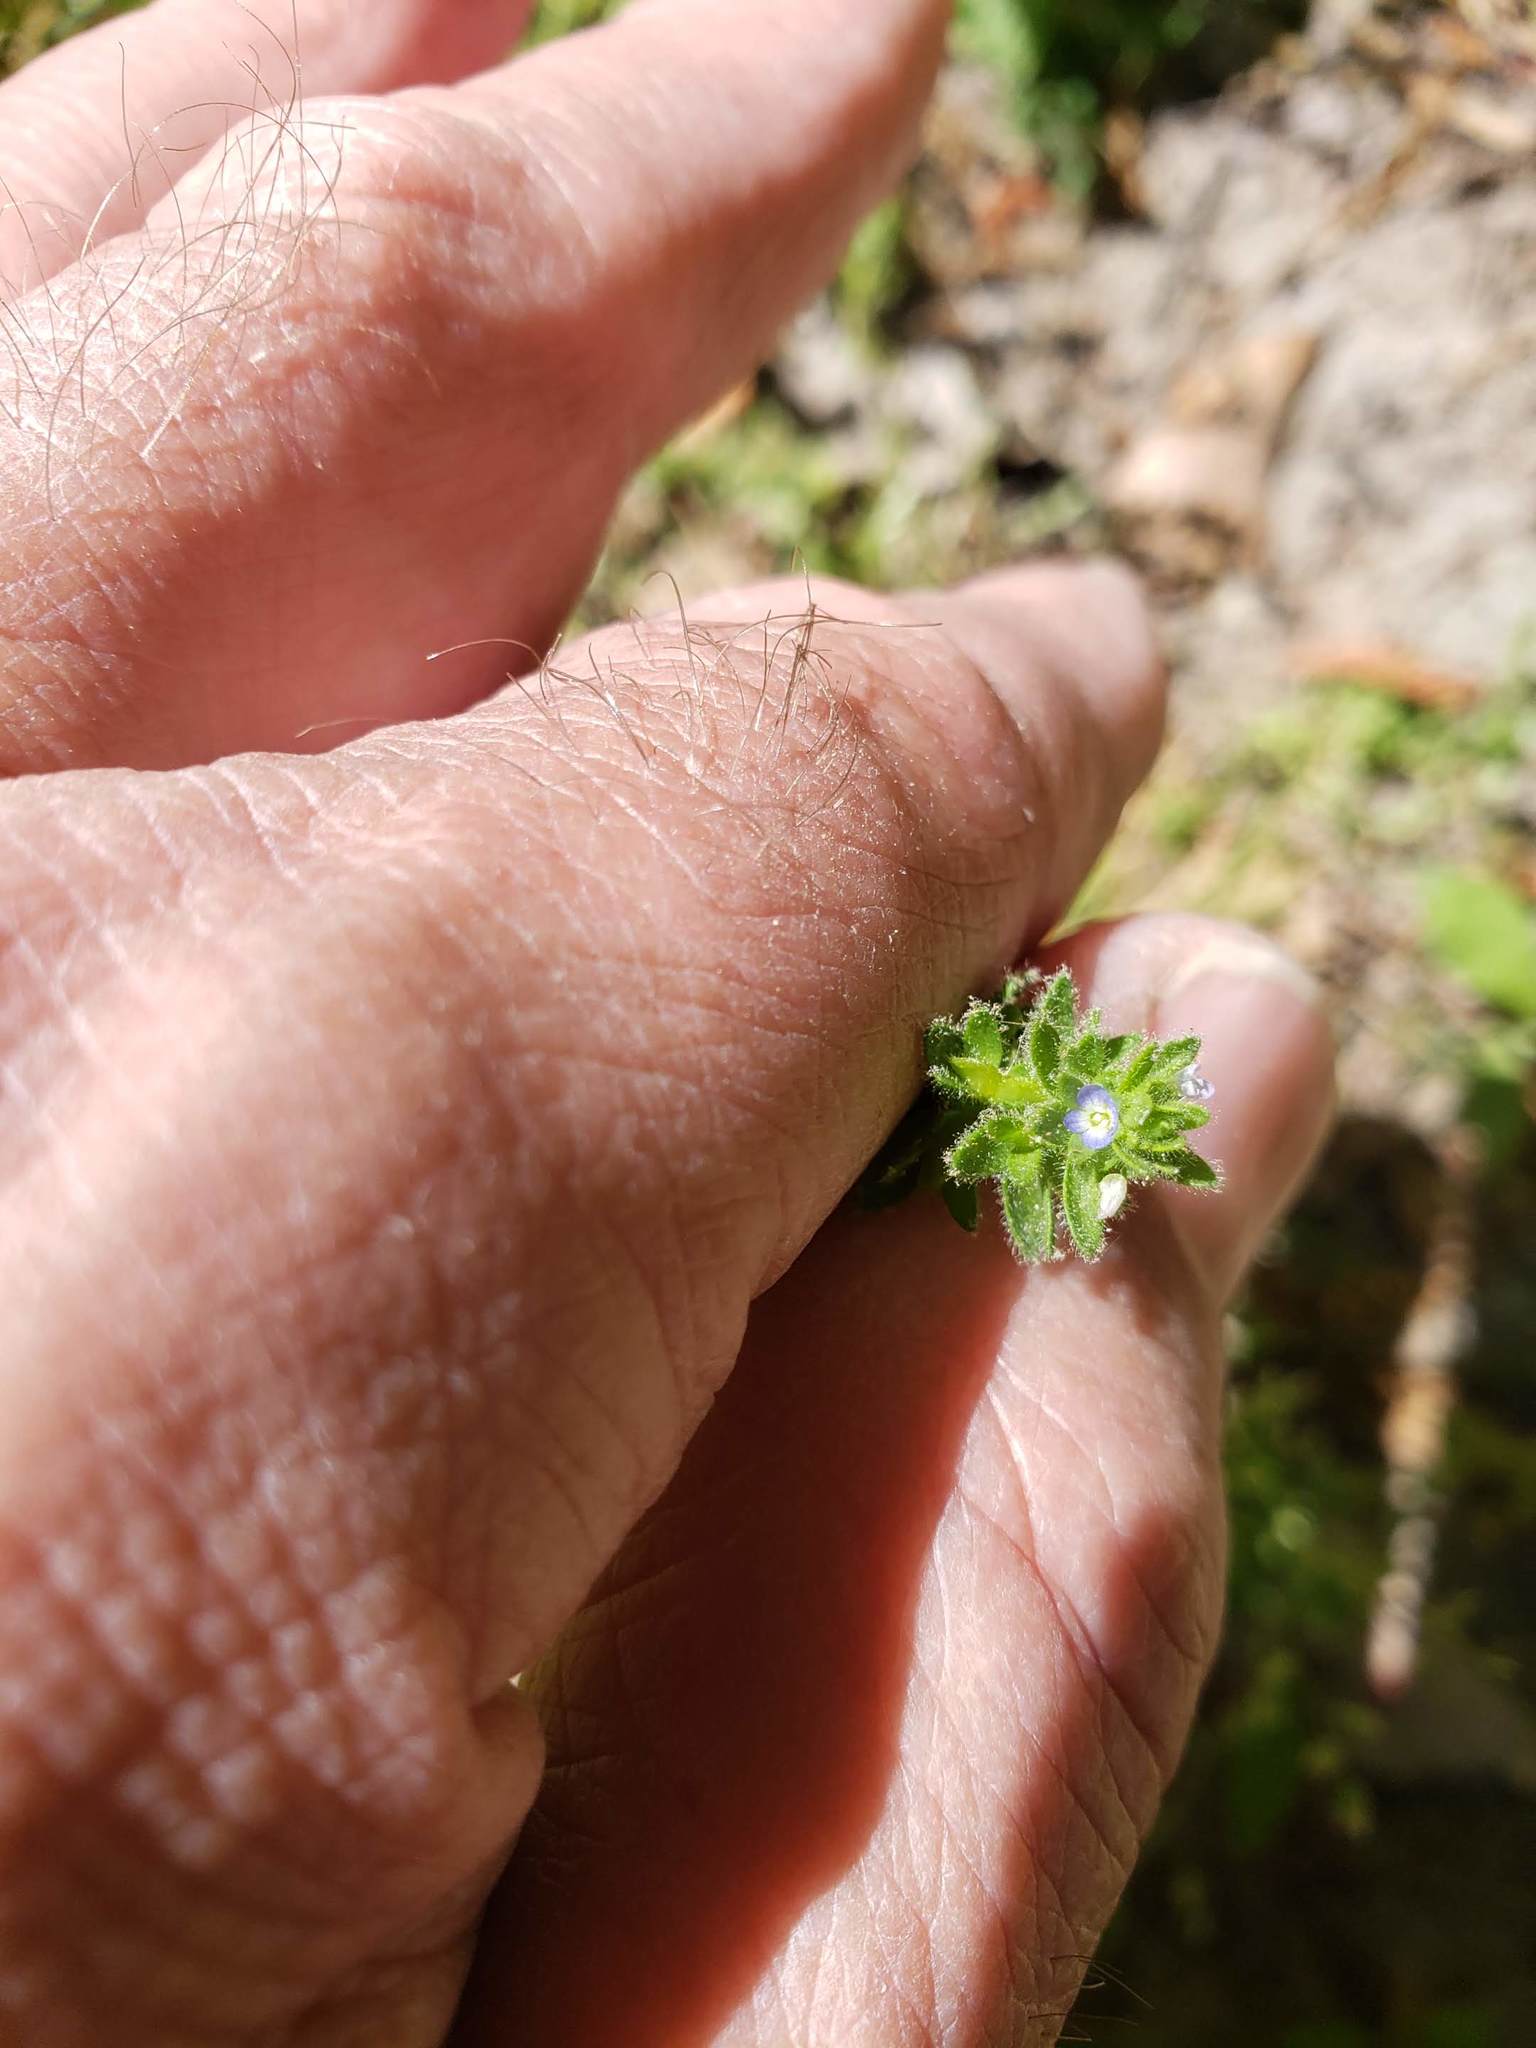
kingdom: Plantae
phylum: Tracheophyta
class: Magnoliopsida
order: Lamiales
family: Plantaginaceae
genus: Veronica
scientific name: Veronica arvensis
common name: Corn speedwell
